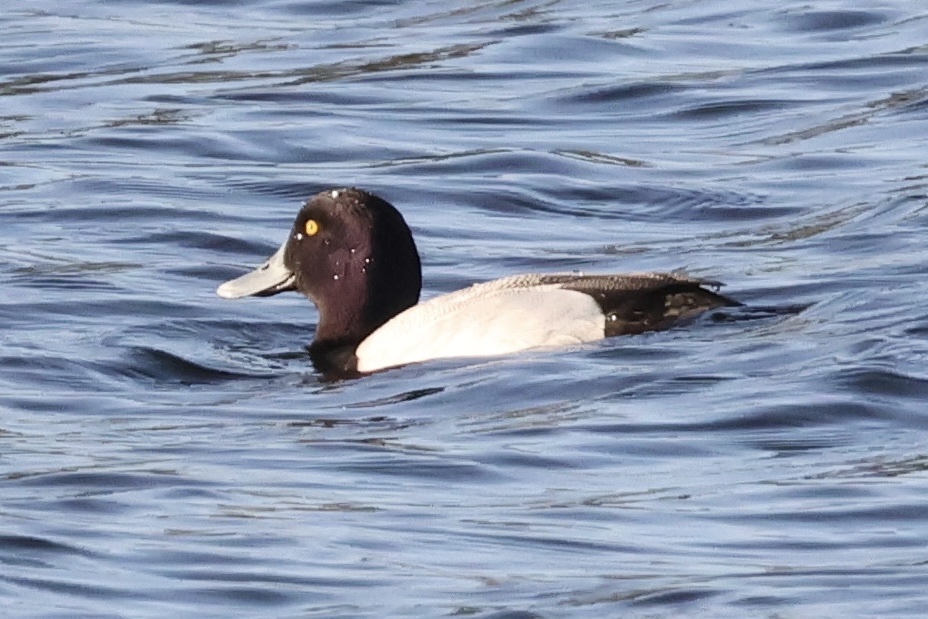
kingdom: Animalia
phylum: Chordata
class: Aves
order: Anseriformes
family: Anatidae
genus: Aythya
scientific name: Aythya marila
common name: Greater scaup
